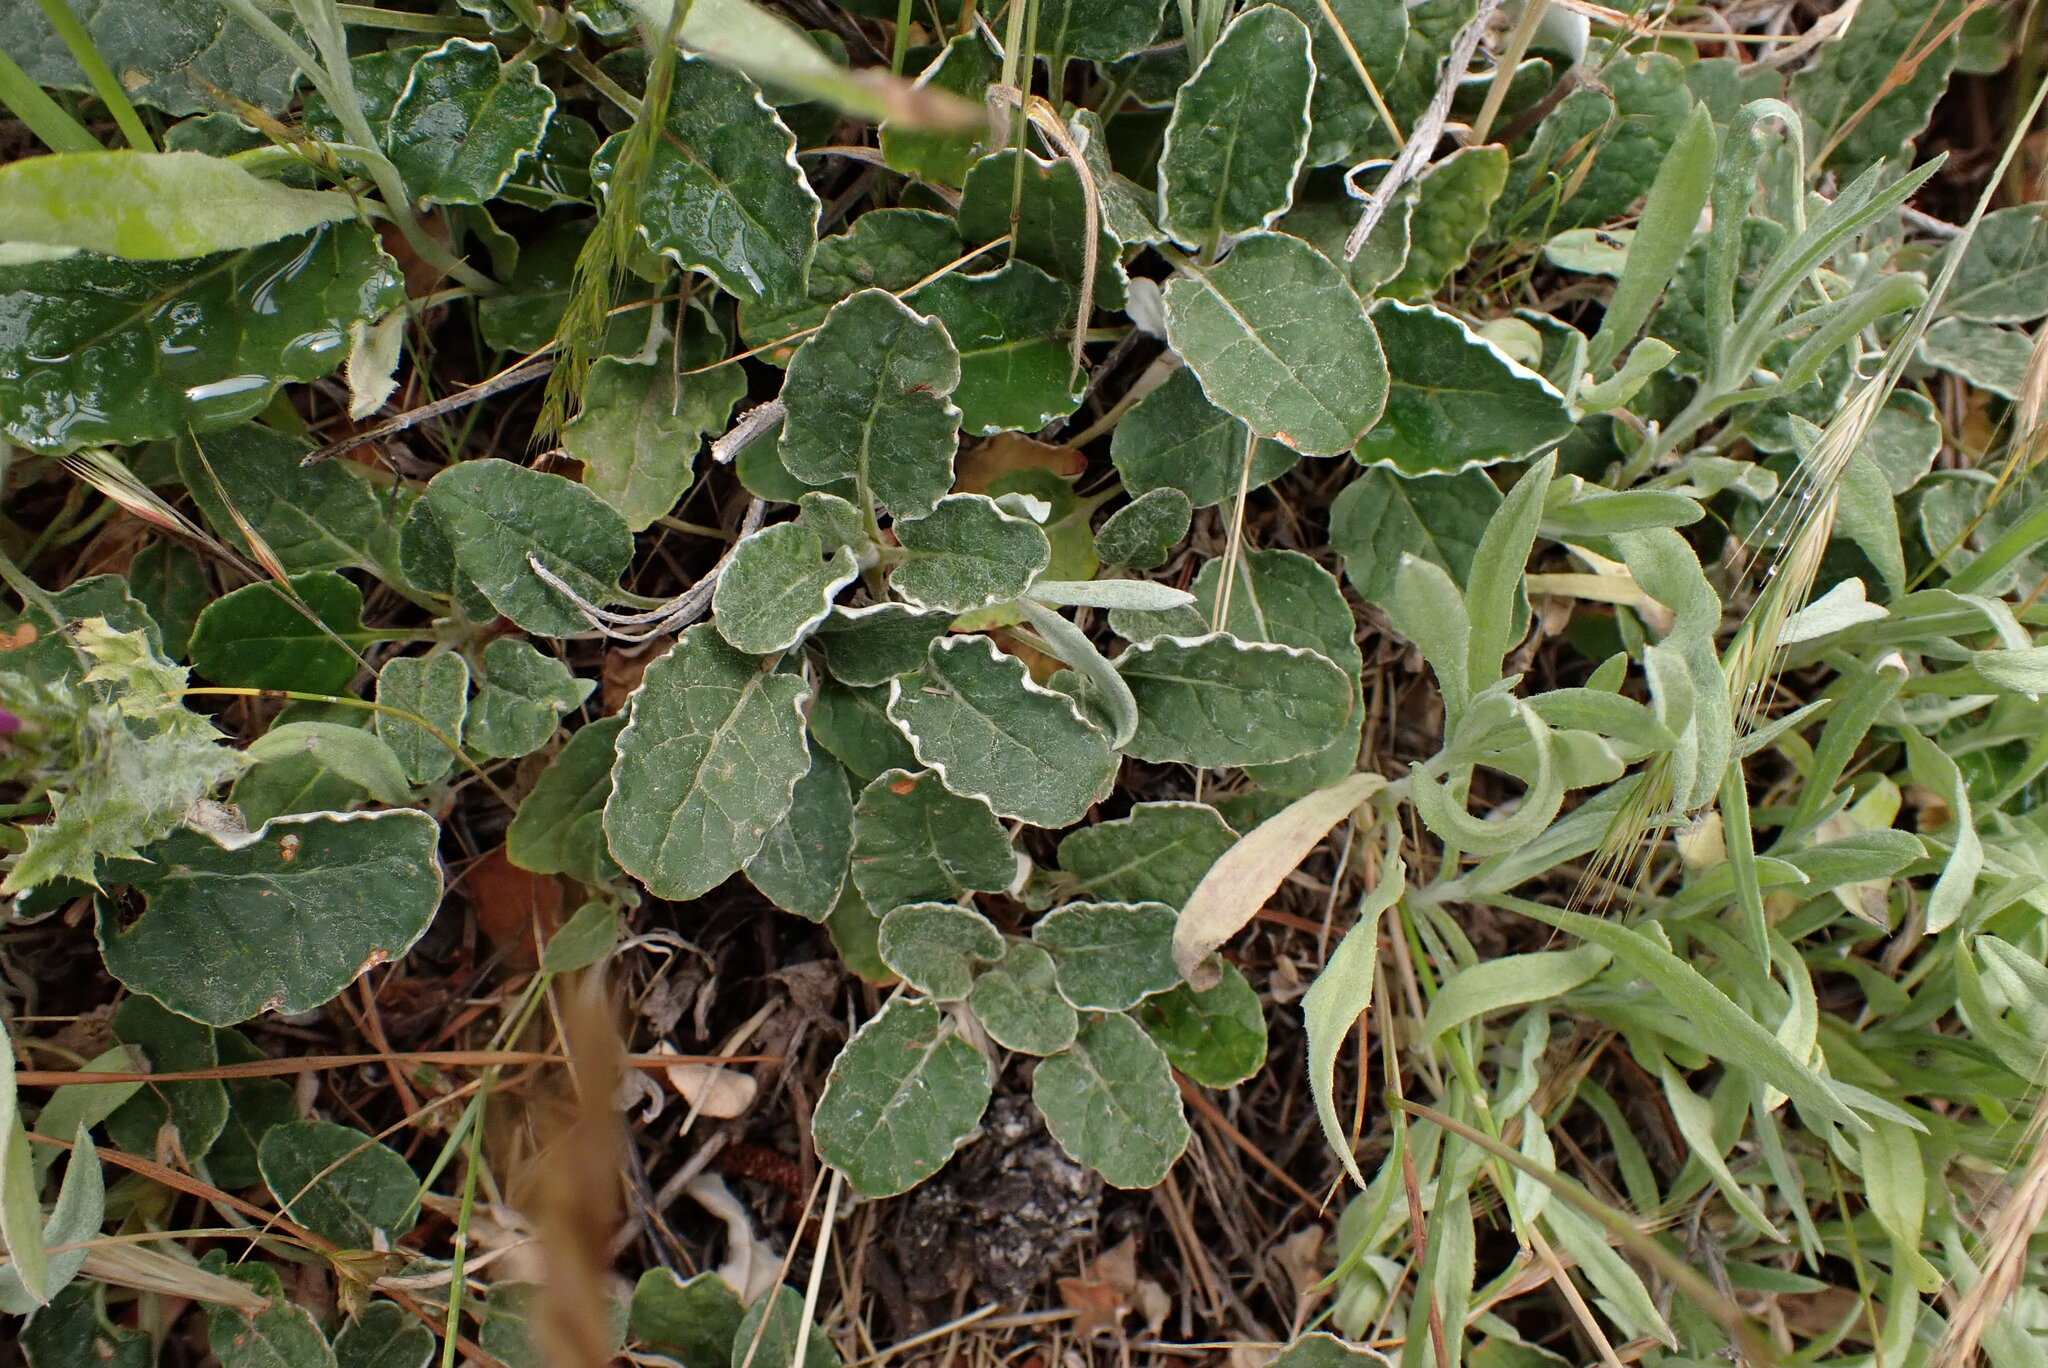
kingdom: Plantae
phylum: Tracheophyta
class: Magnoliopsida
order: Caryophyllales
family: Polygonaceae
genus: Eriogonum
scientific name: Eriogonum nudum
